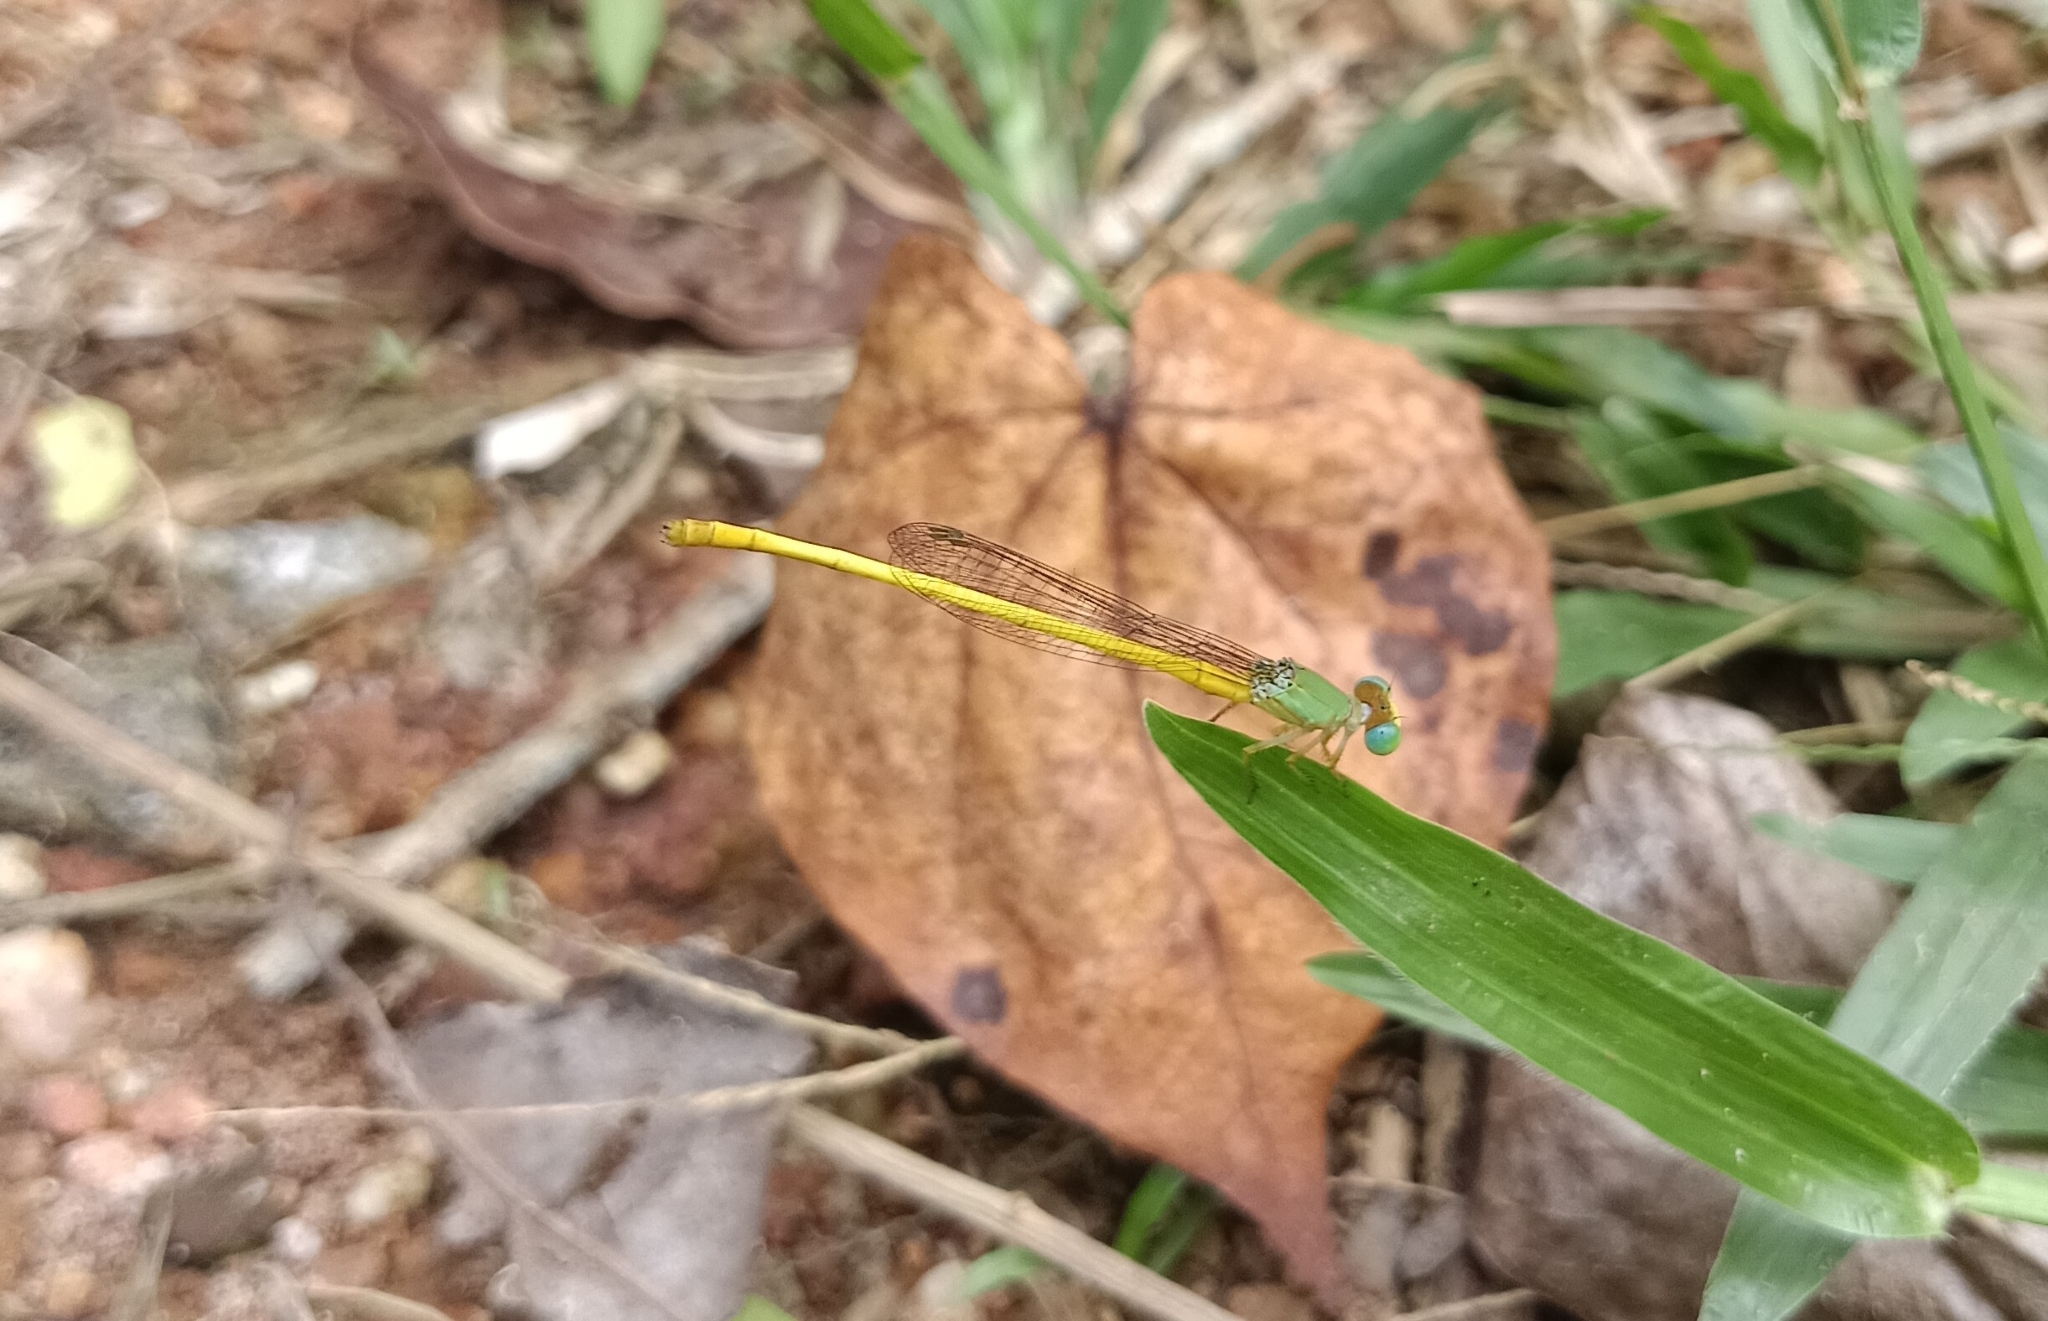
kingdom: Animalia
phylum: Arthropoda
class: Insecta
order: Odonata
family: Coenagrionidae
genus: Ceriagrion
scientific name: Ceriagrion coromandelianum
